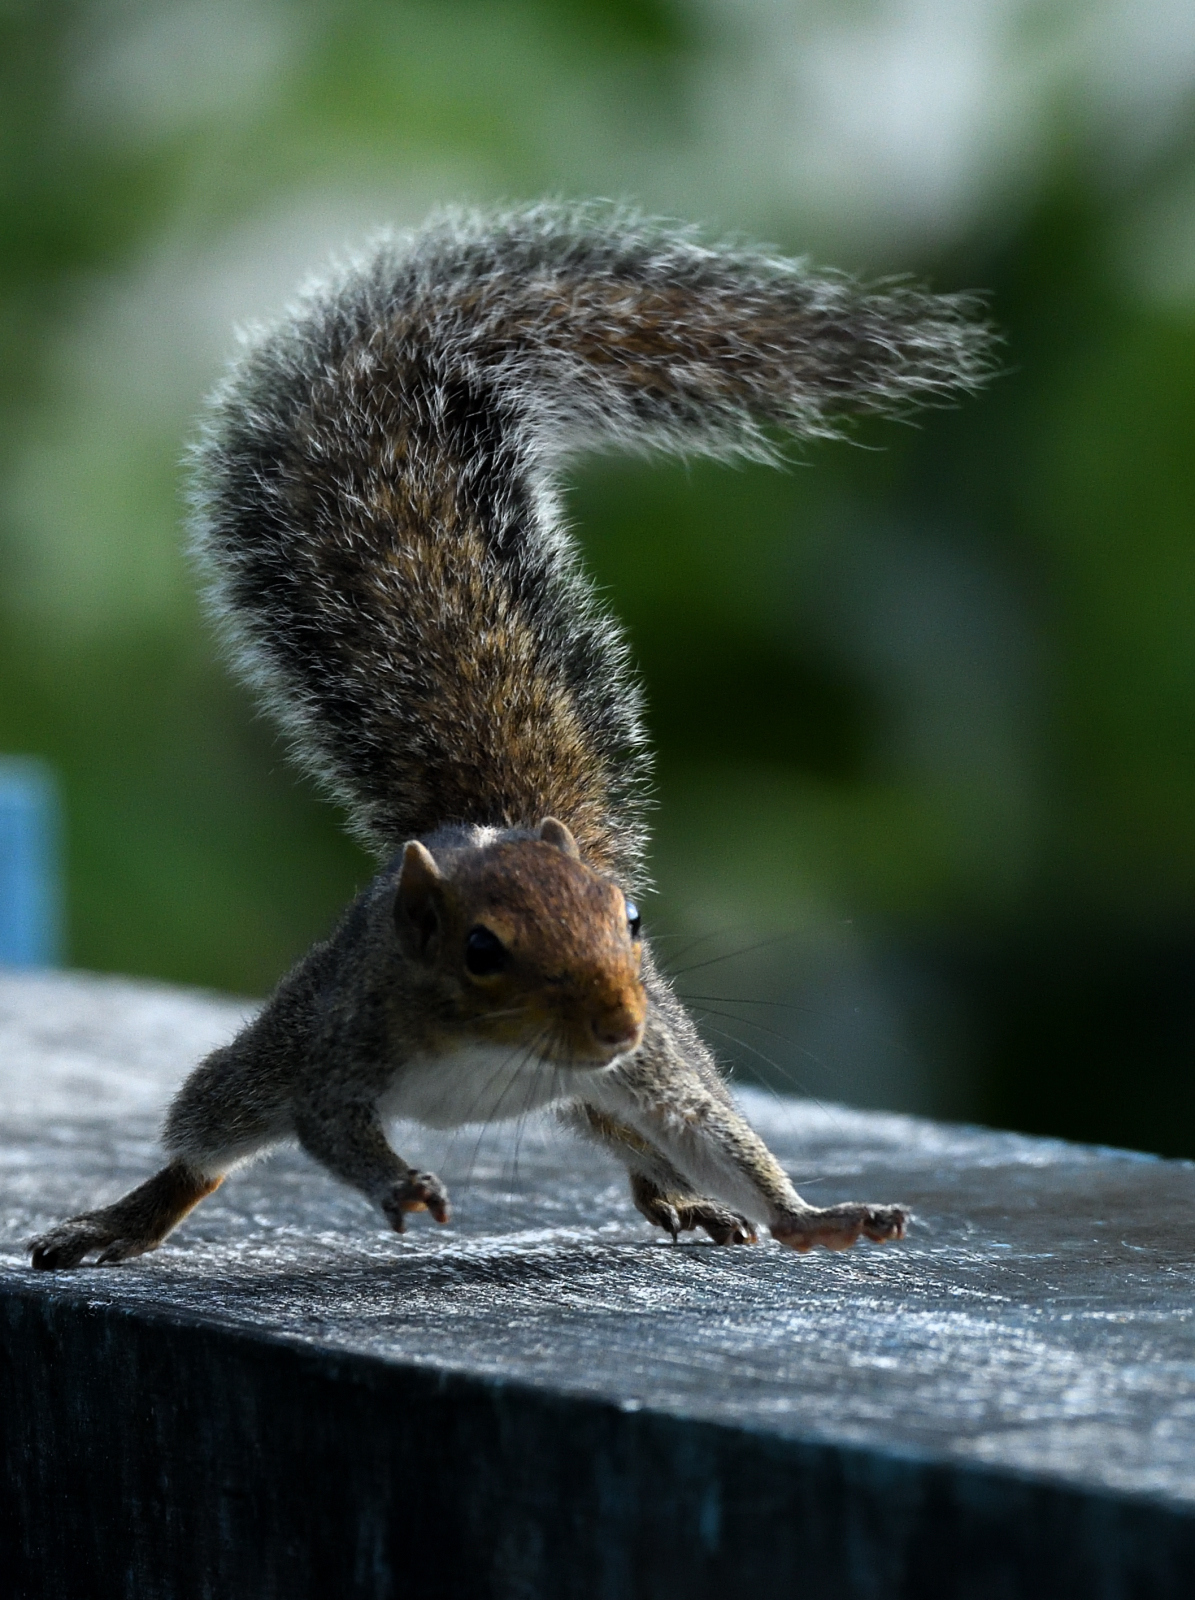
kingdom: Animalia
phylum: Chordata
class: Mammalia
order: Rodentia
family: Sciuridae
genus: Funambulus
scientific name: Funambulus tristriatus
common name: Jungle palm squirrel
